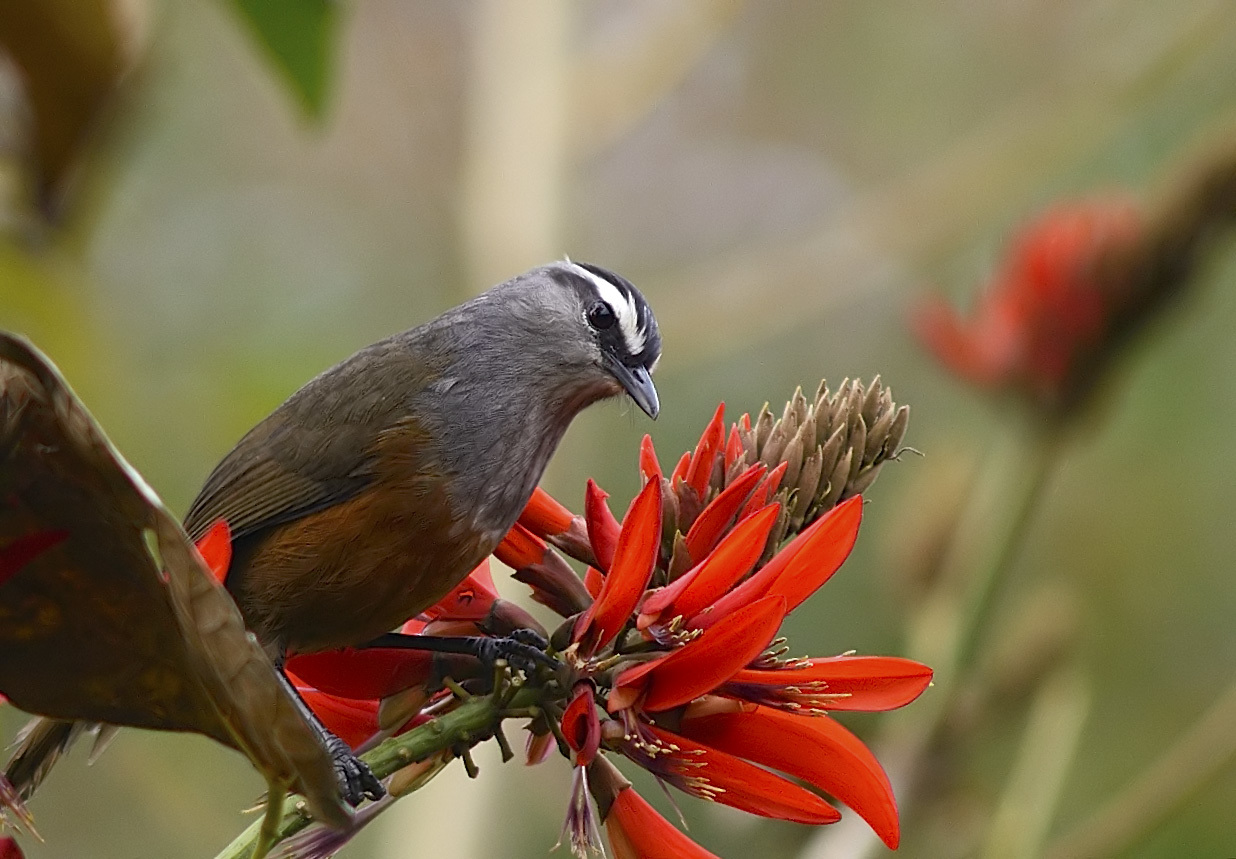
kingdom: Animalia
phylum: Chordata
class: Aves
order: Passeriformes
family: Leiothrichidae
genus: Trochalopteron
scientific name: Trochalopteron fairbanki
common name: Kerala laughingthrush
